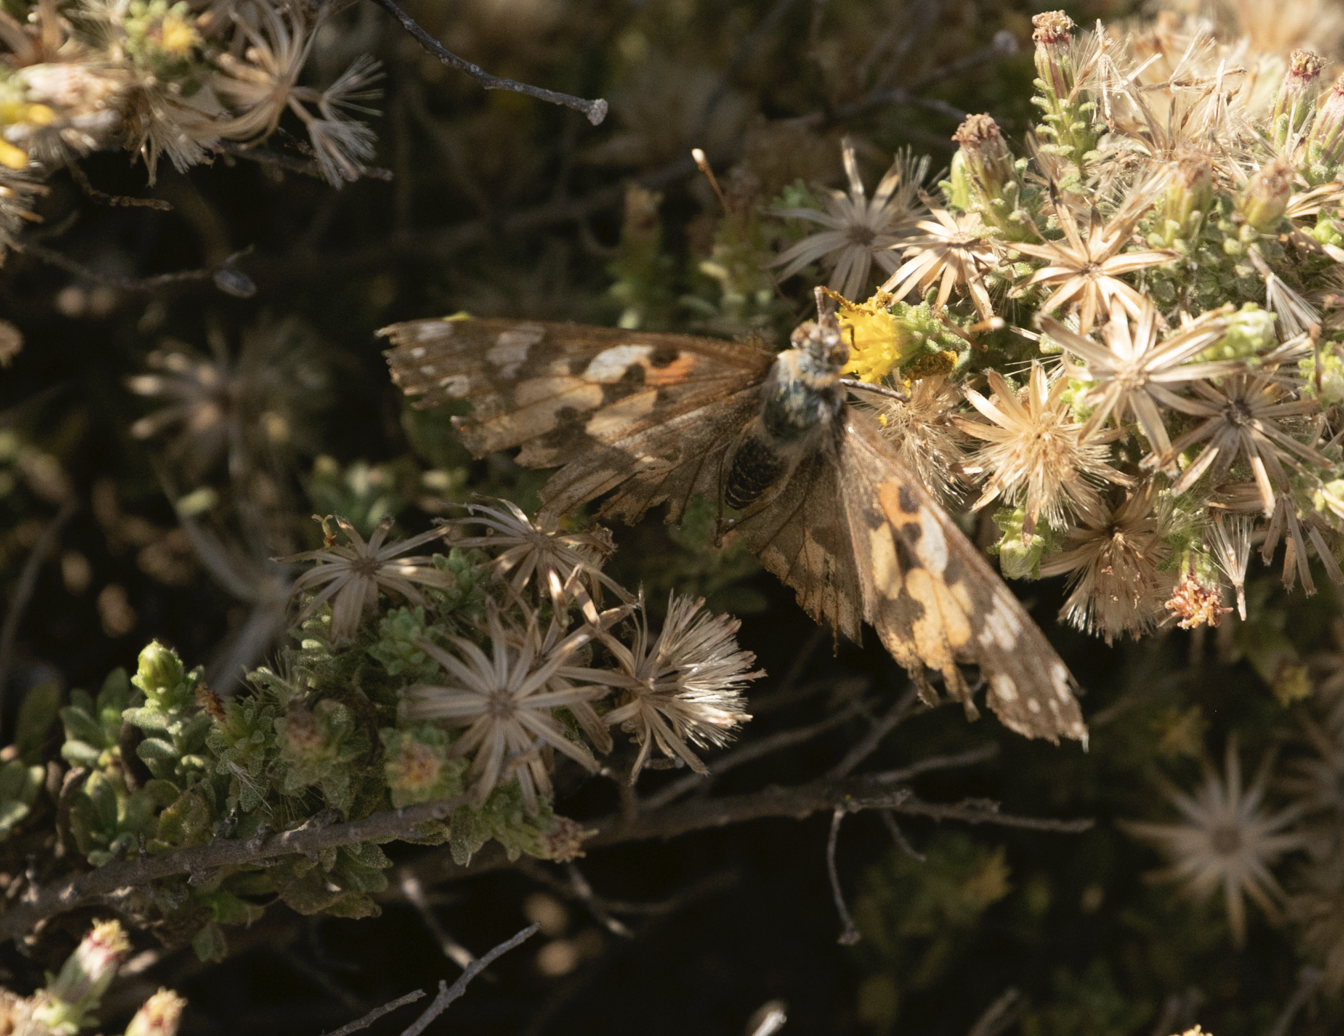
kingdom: Animalia
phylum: Arthropoda
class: Insecta
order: Lepidoptera
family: Nymphalidae
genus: Vanessa
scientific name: Vanessa cardui
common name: Painted lady
